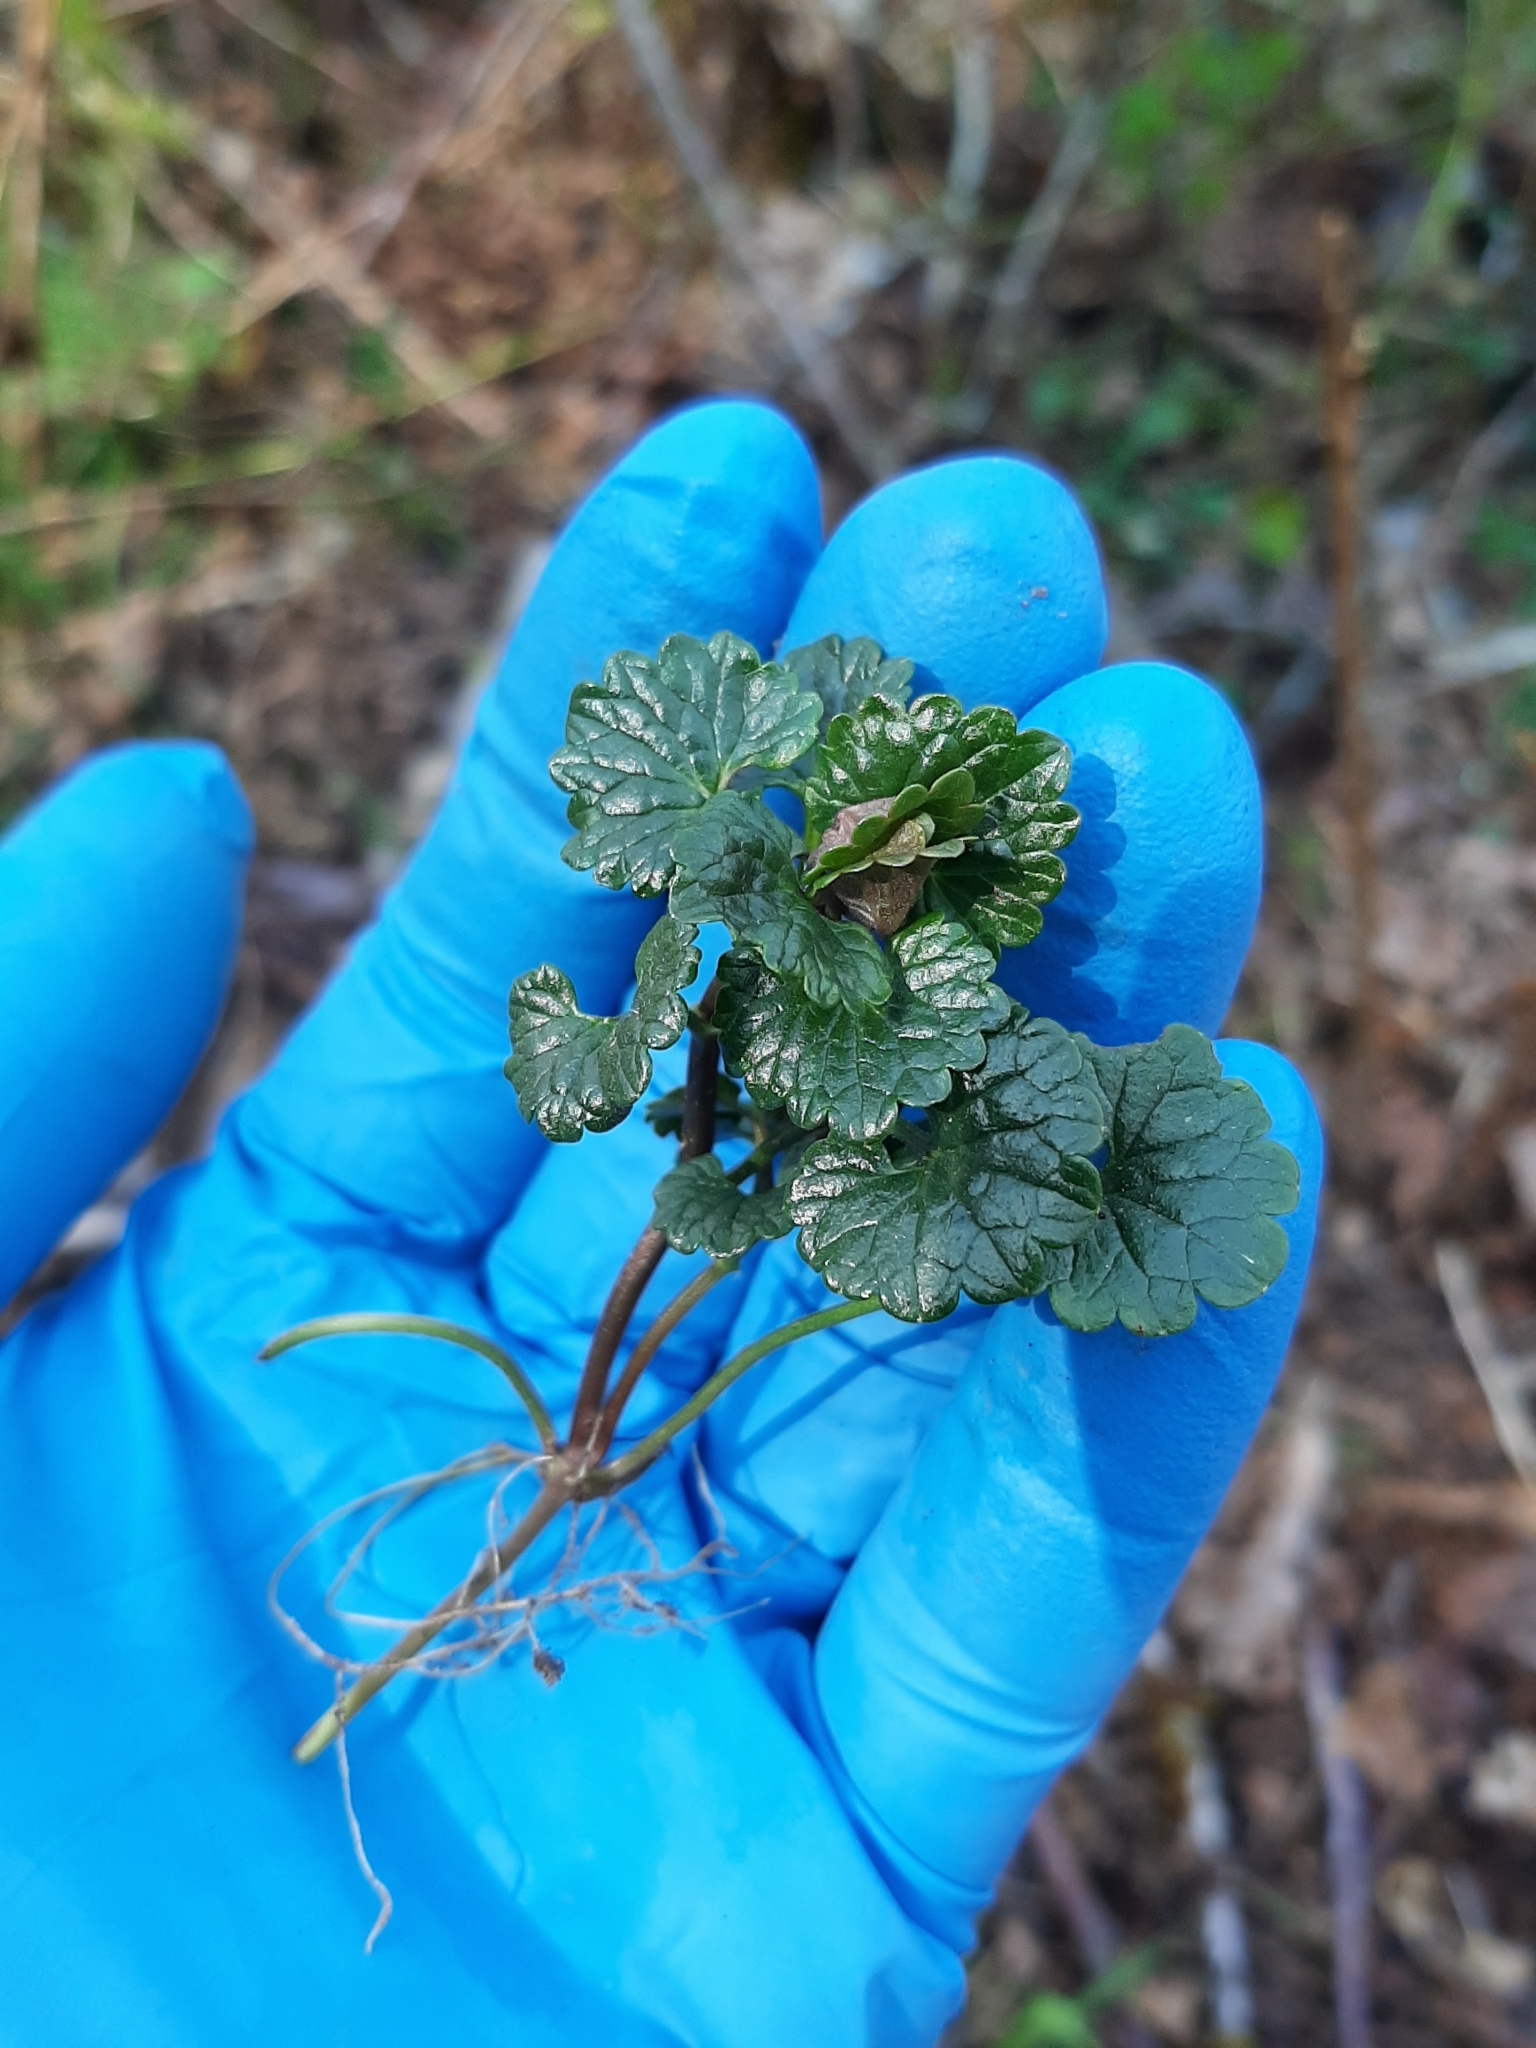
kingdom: Plantae
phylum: Tracheophyta
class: Magnoliopsida
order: Lamiales
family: Lamiaceae
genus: Glechoma
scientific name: Glechoma hederacea
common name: Ground ivy
